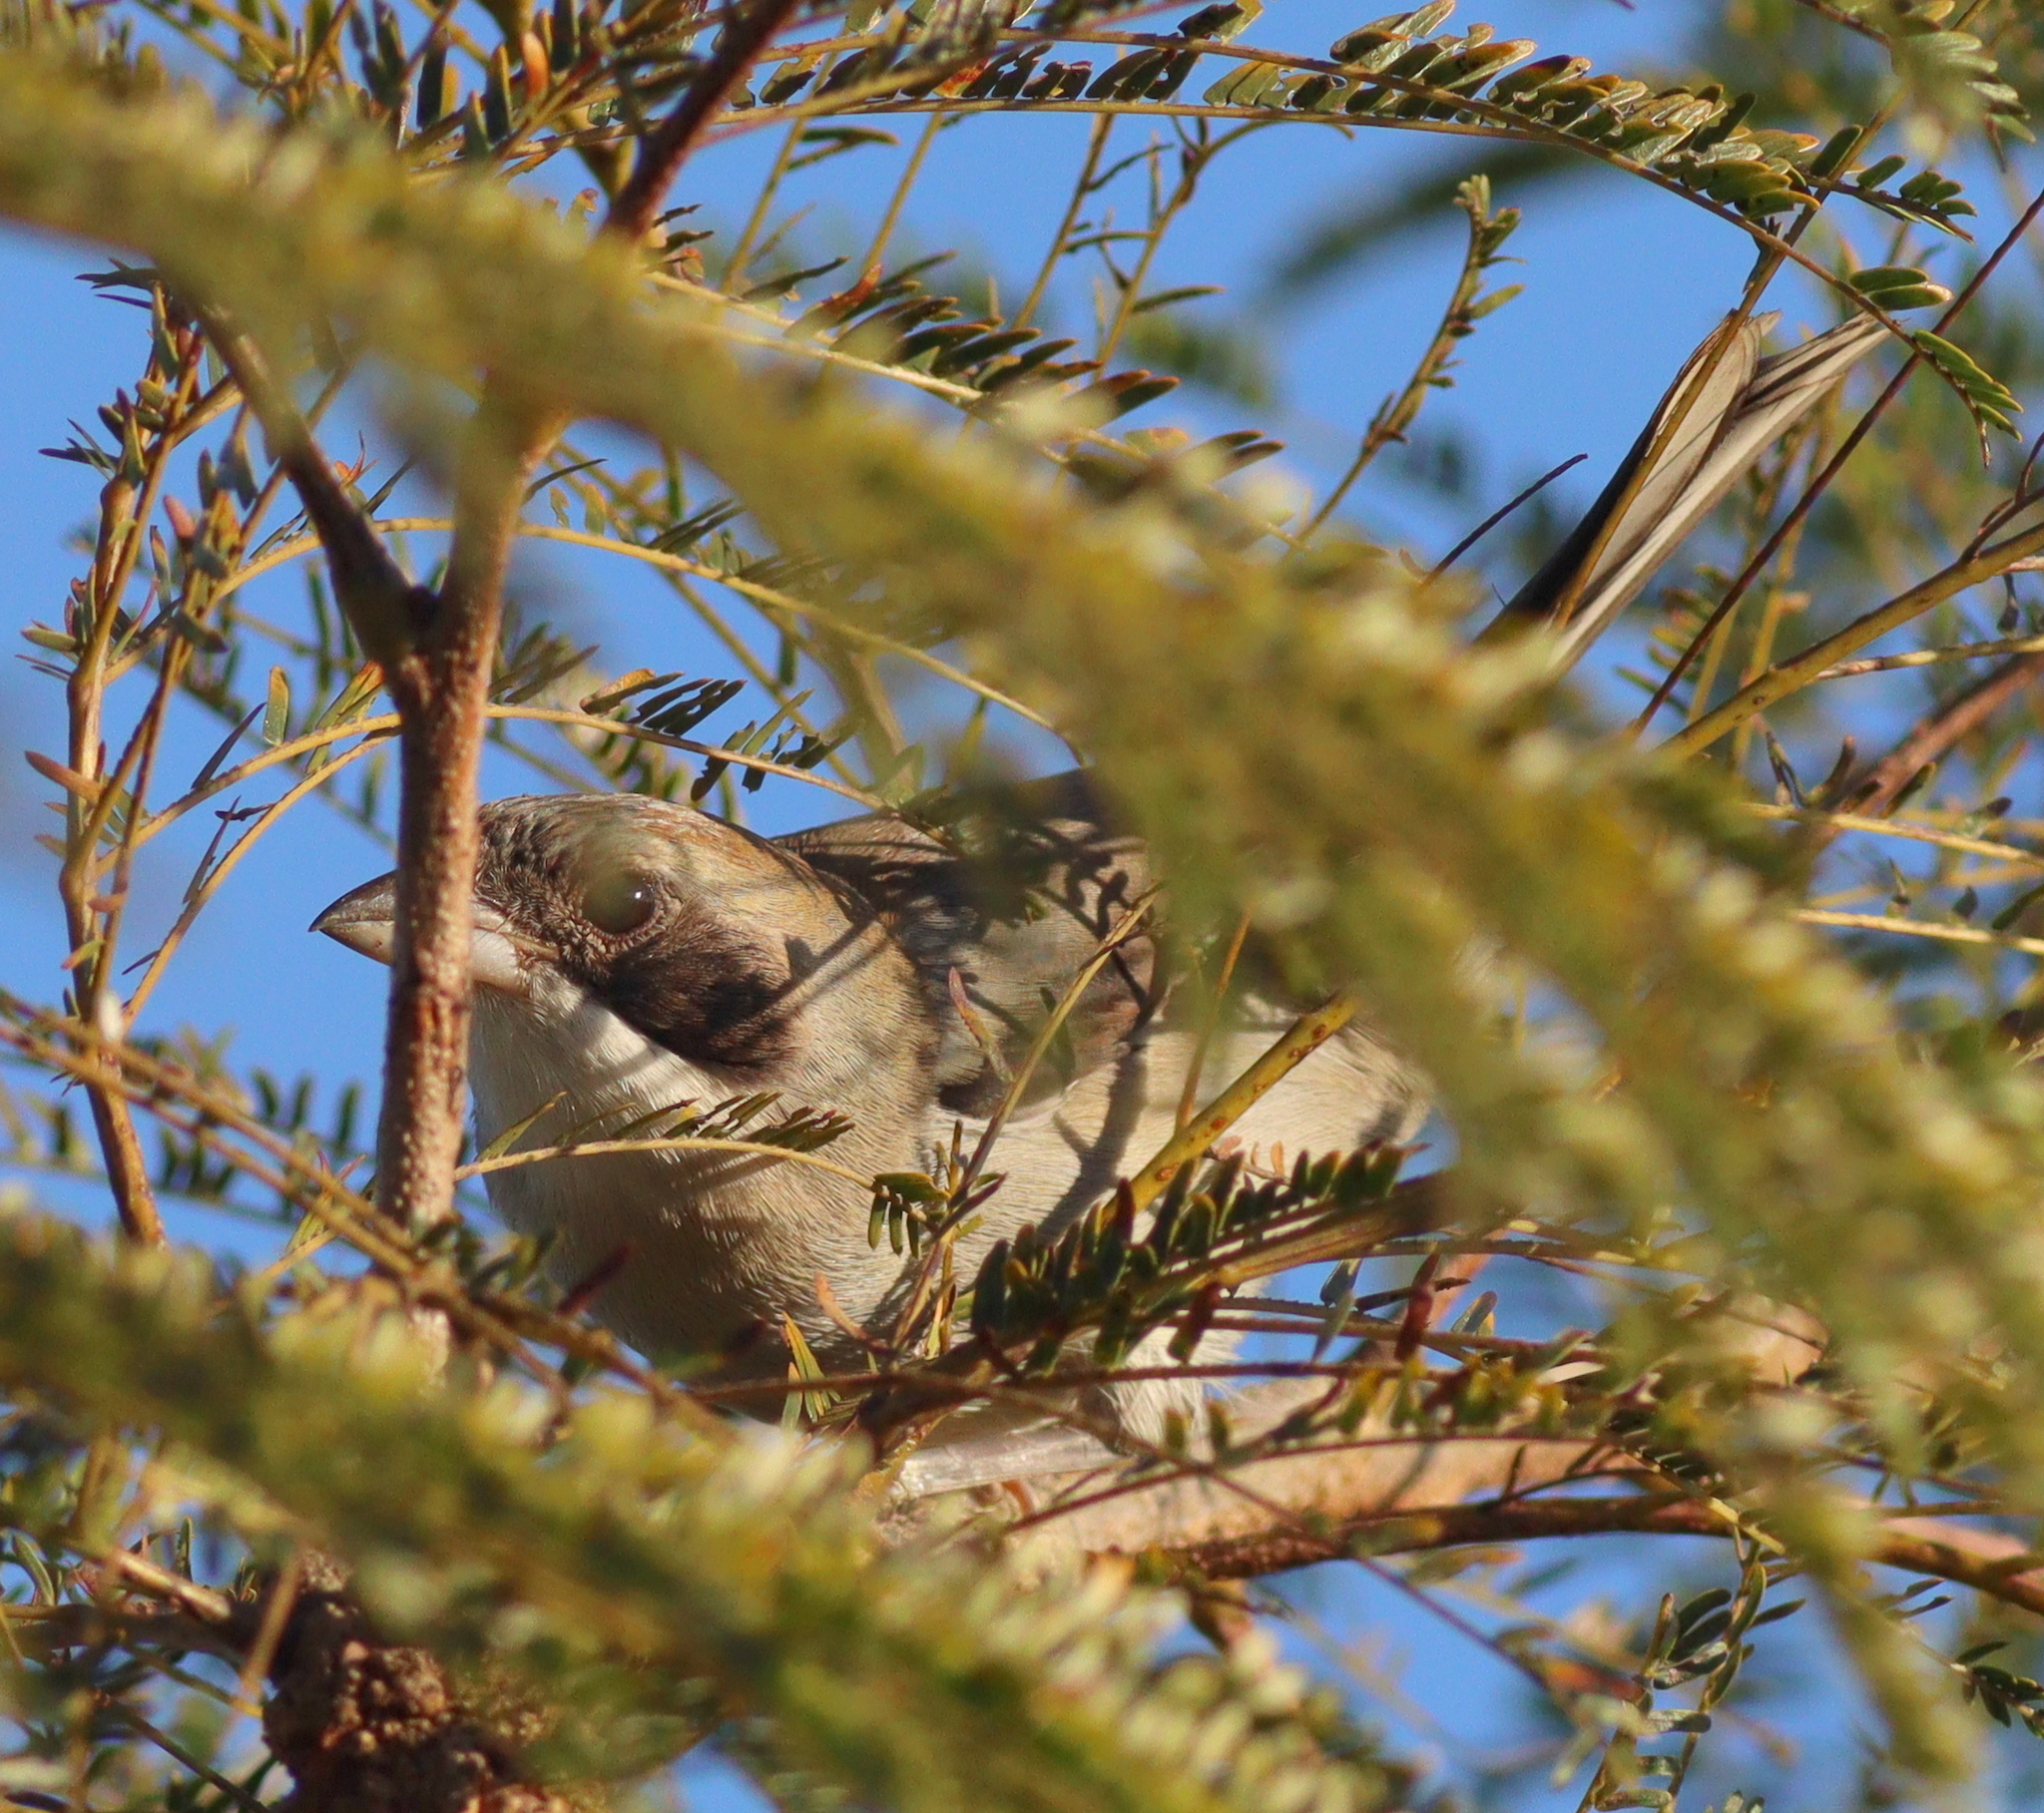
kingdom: Animalia
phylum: Chordata
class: Aves
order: Passeriformes
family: Thraupidae
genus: Neothraupis
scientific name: Neothraupis fasciata
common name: Shrike-like tanager
